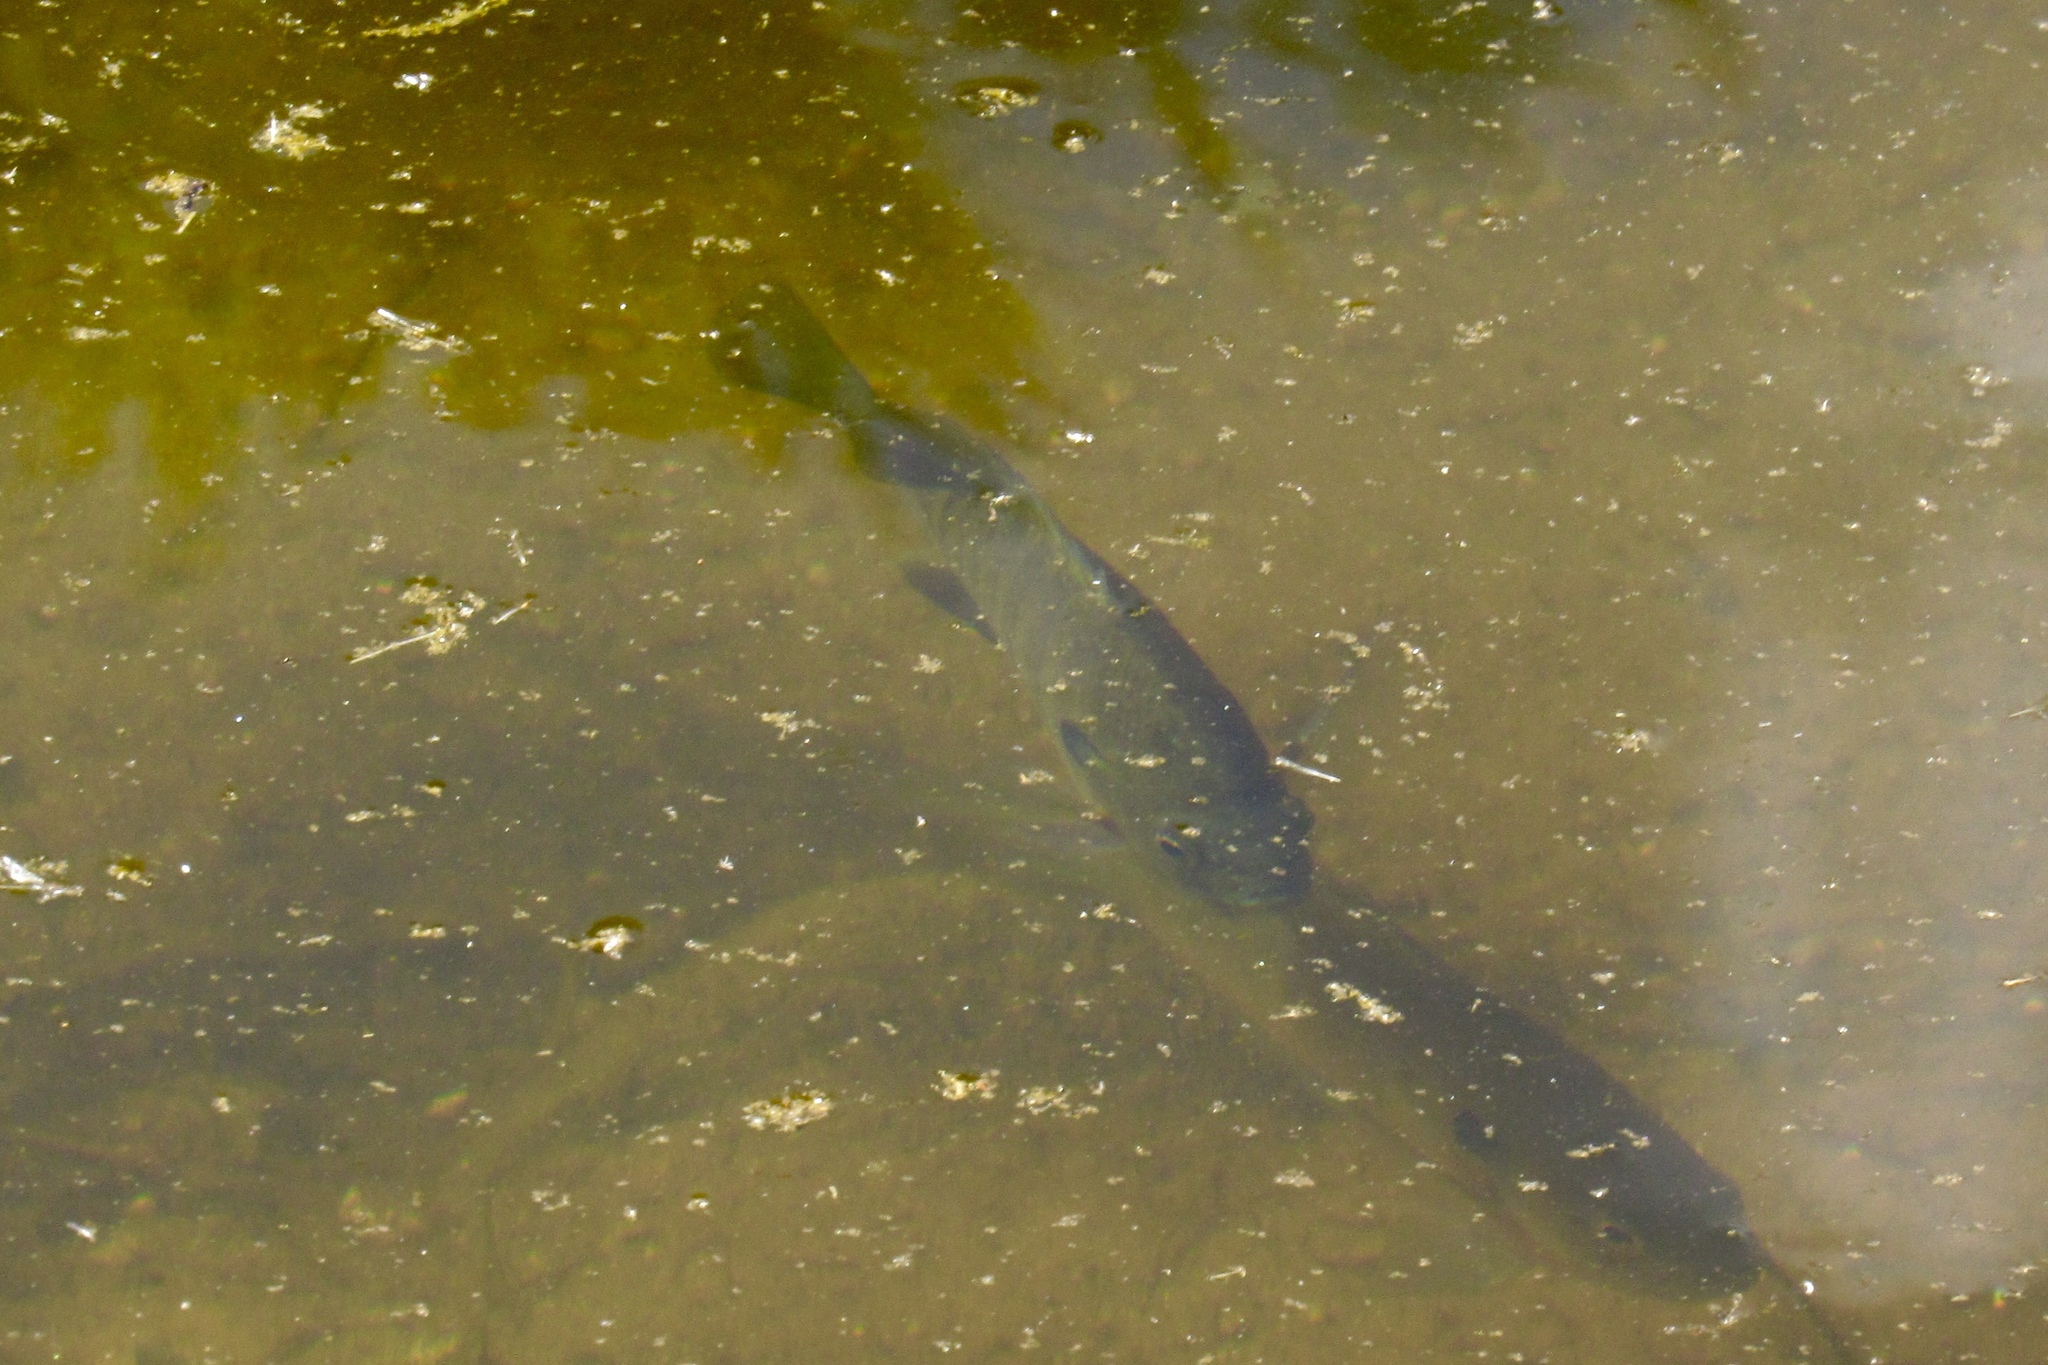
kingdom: Animalia
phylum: Chordata
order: Perciformes
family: Centrarchidae
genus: Micropterus
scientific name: Micropterus
